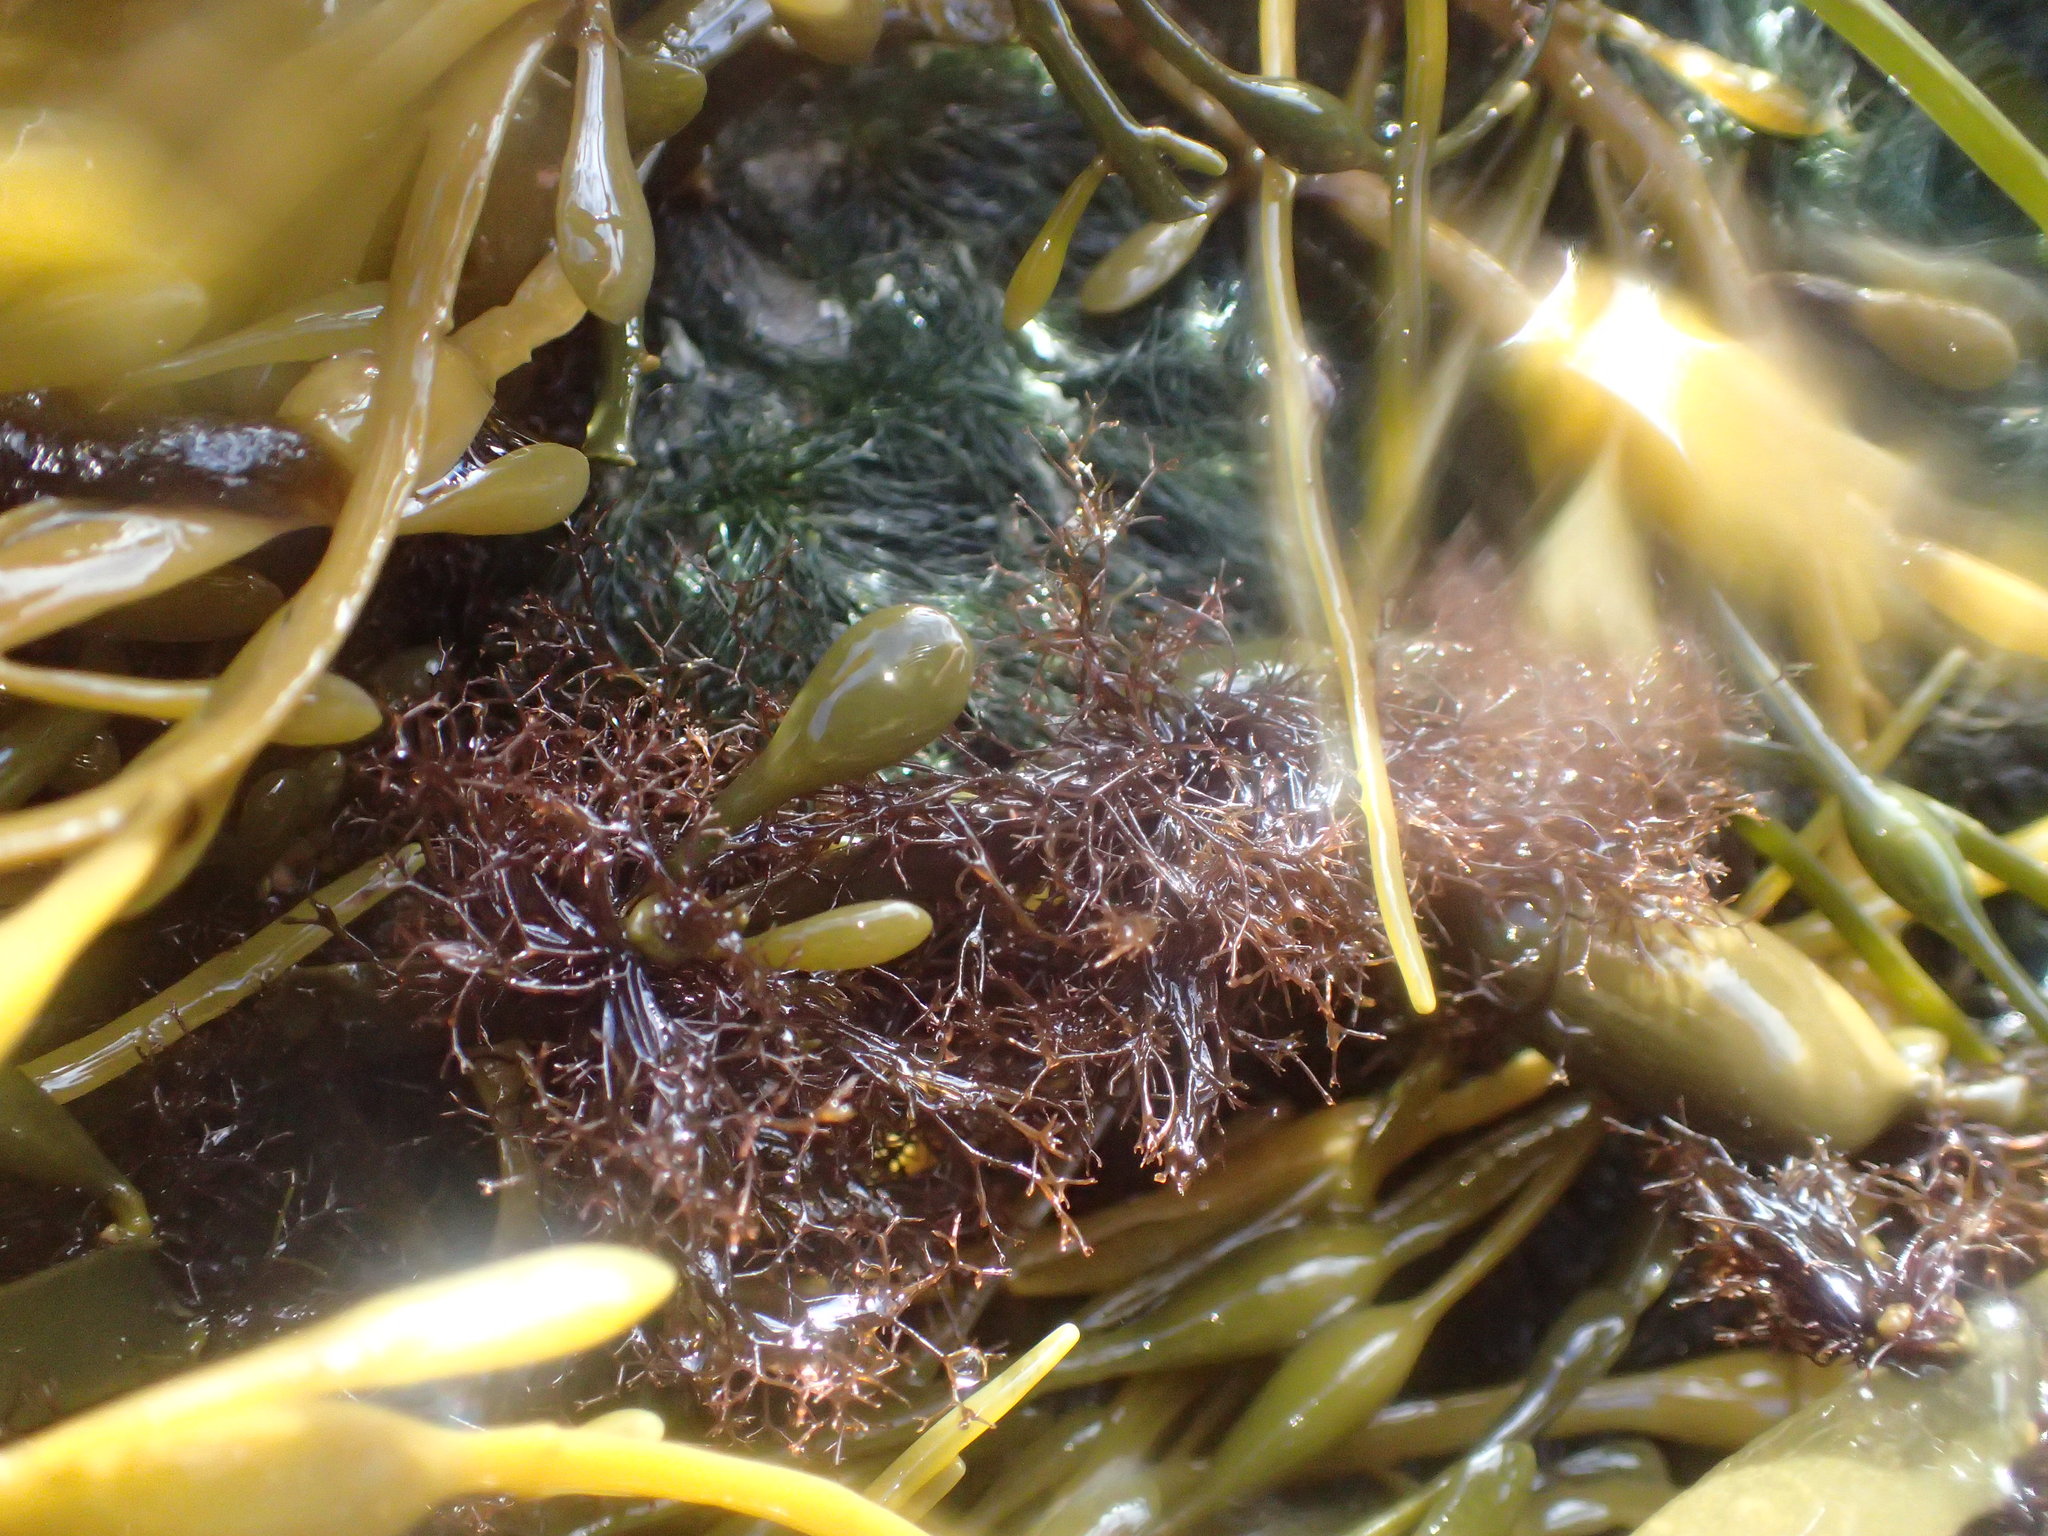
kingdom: Plantae
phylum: Rhodophyta
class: Florideophyceae
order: Ceramiales
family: Rhodomelaceae
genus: Vertebrata
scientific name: Vertebrata lanosa
